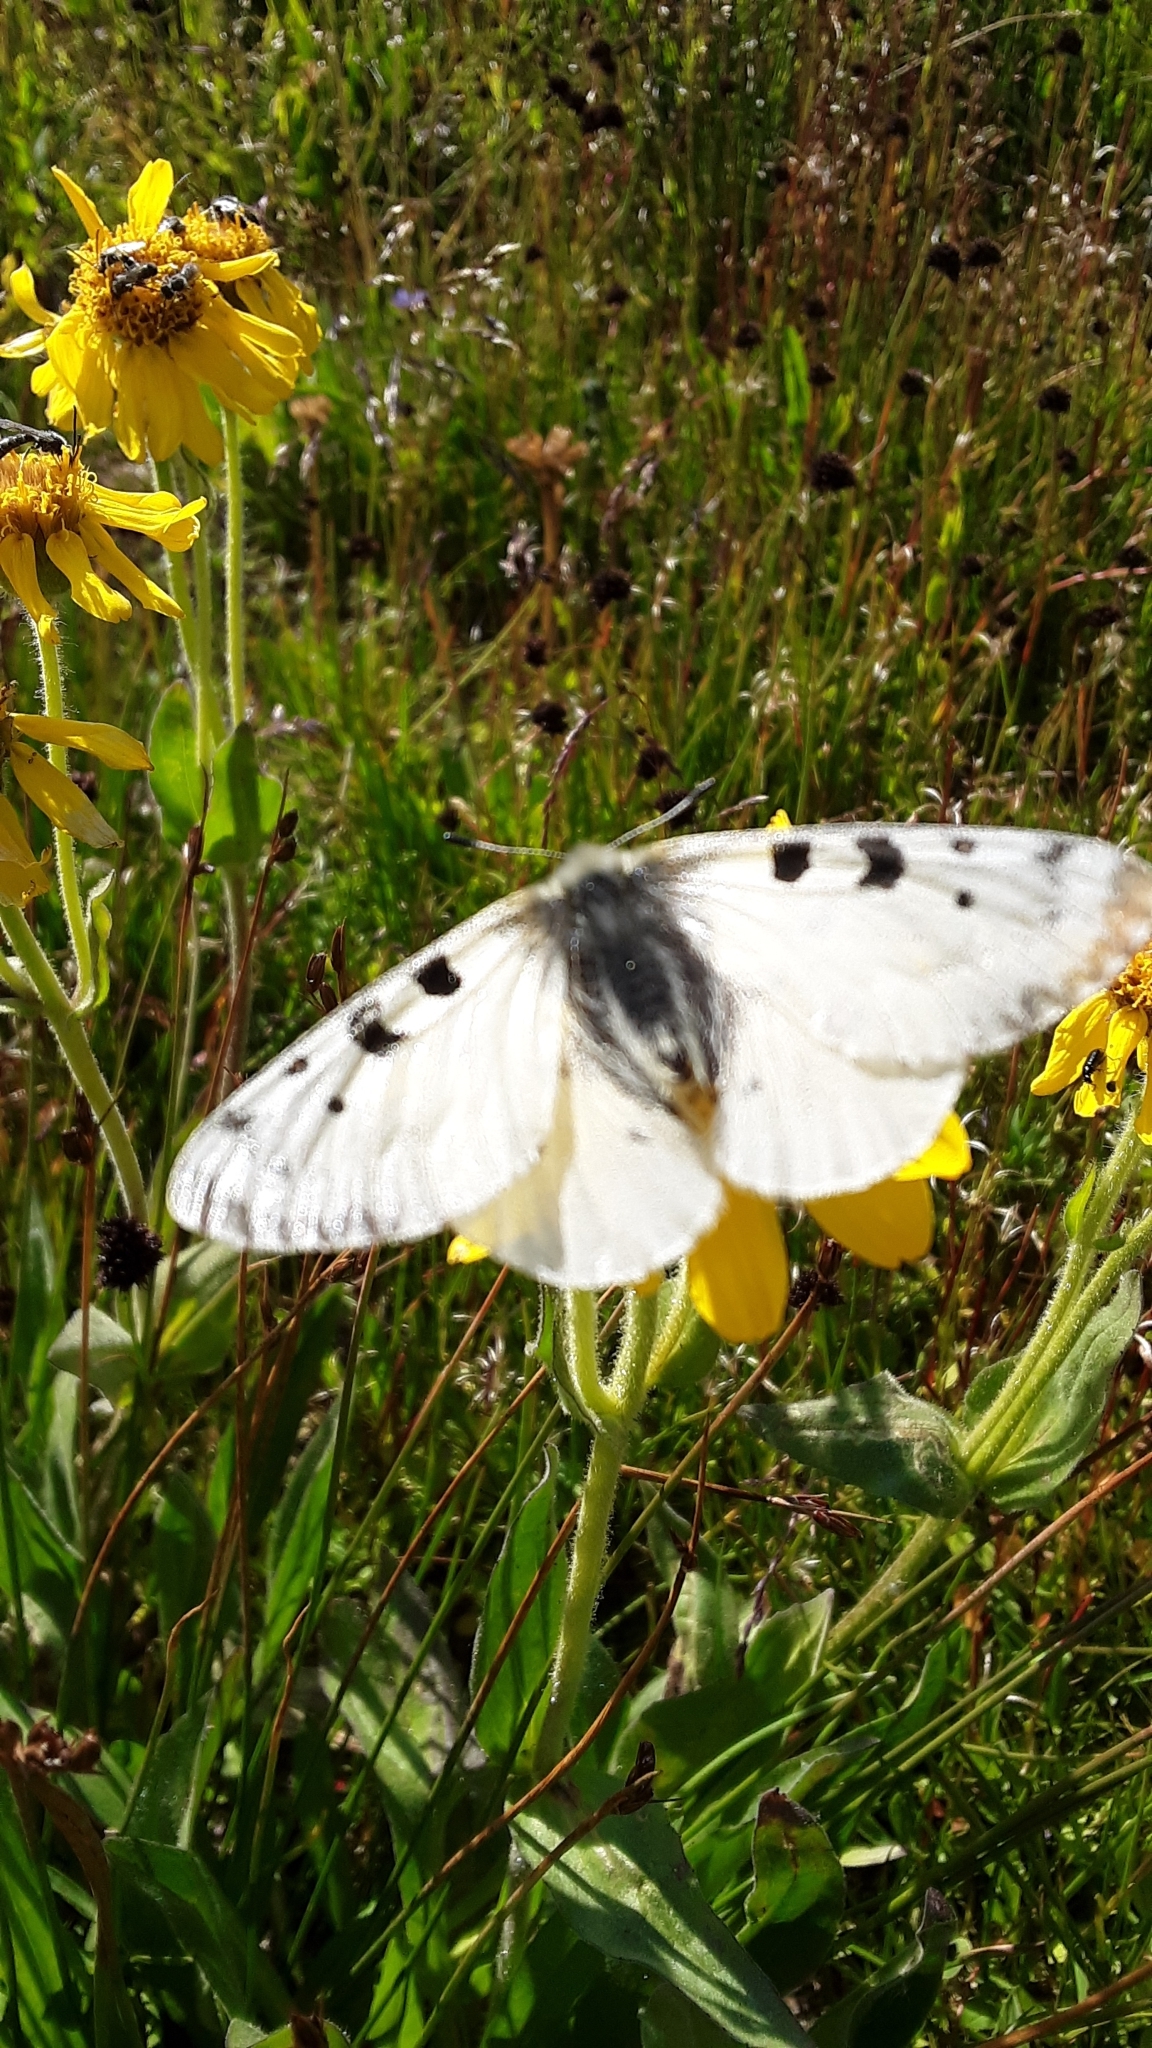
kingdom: Animalia
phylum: Arthropoda
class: Insecta
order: Lepidoptera
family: Papilionidae
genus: Parnassius
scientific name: Parnassius smintheus
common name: Mountain parnassian
